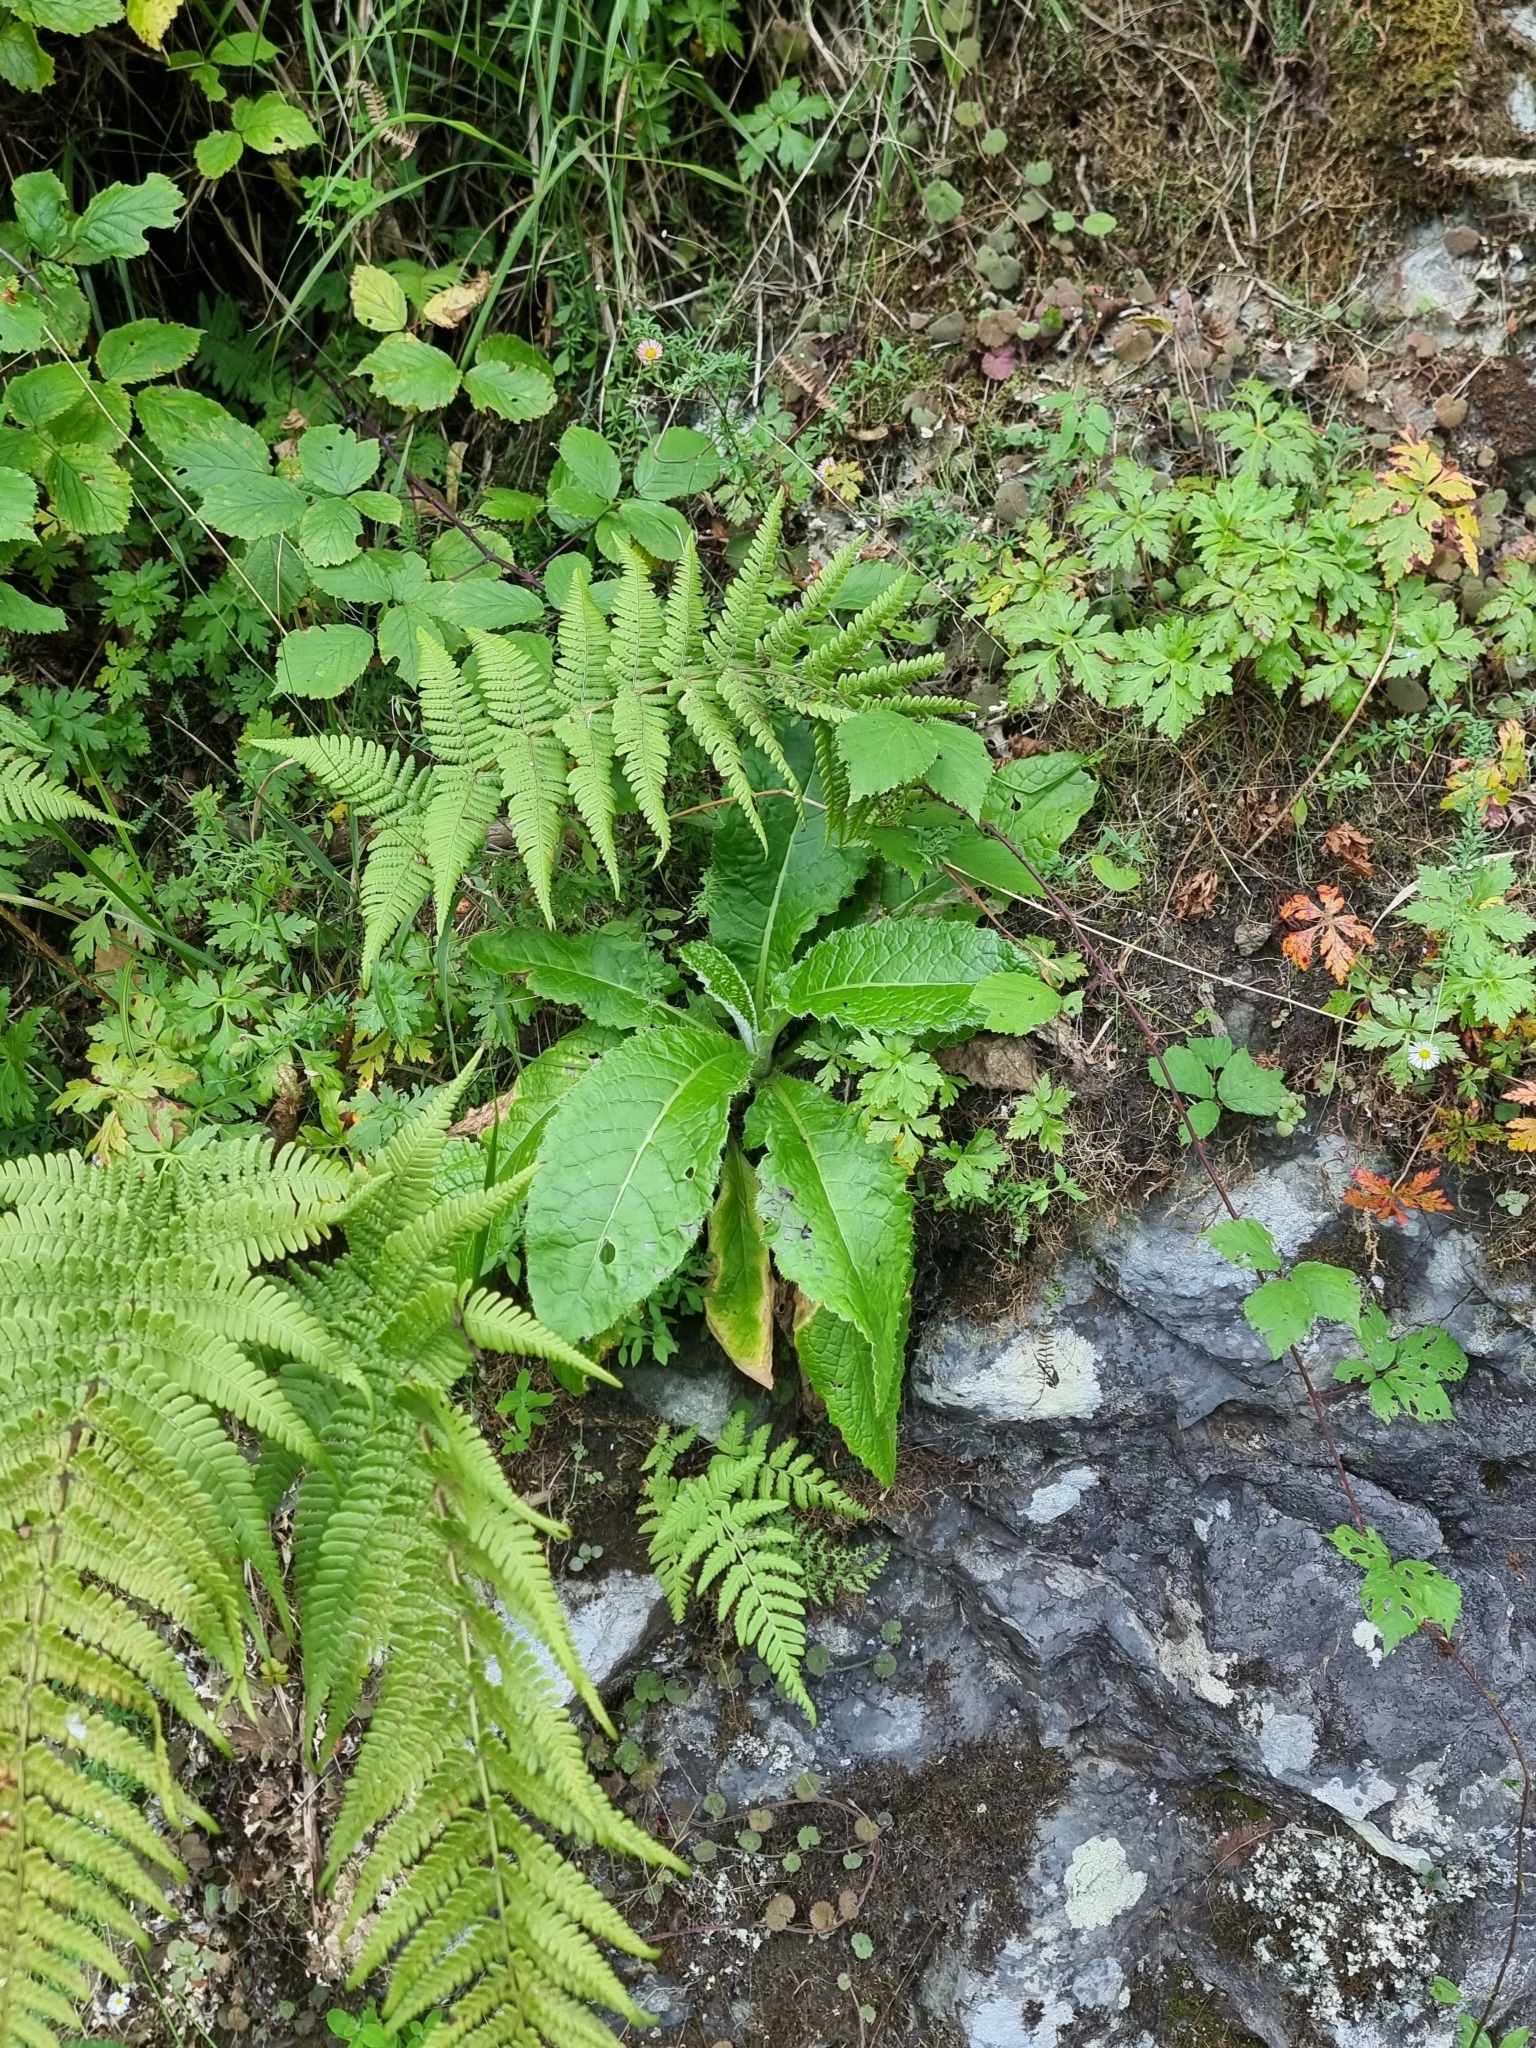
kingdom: Plantae
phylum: Tracheophyta
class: Magnoliopsida
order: Asterales
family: Asteraceae
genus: Cirsium
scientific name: Cirsium latifolium
